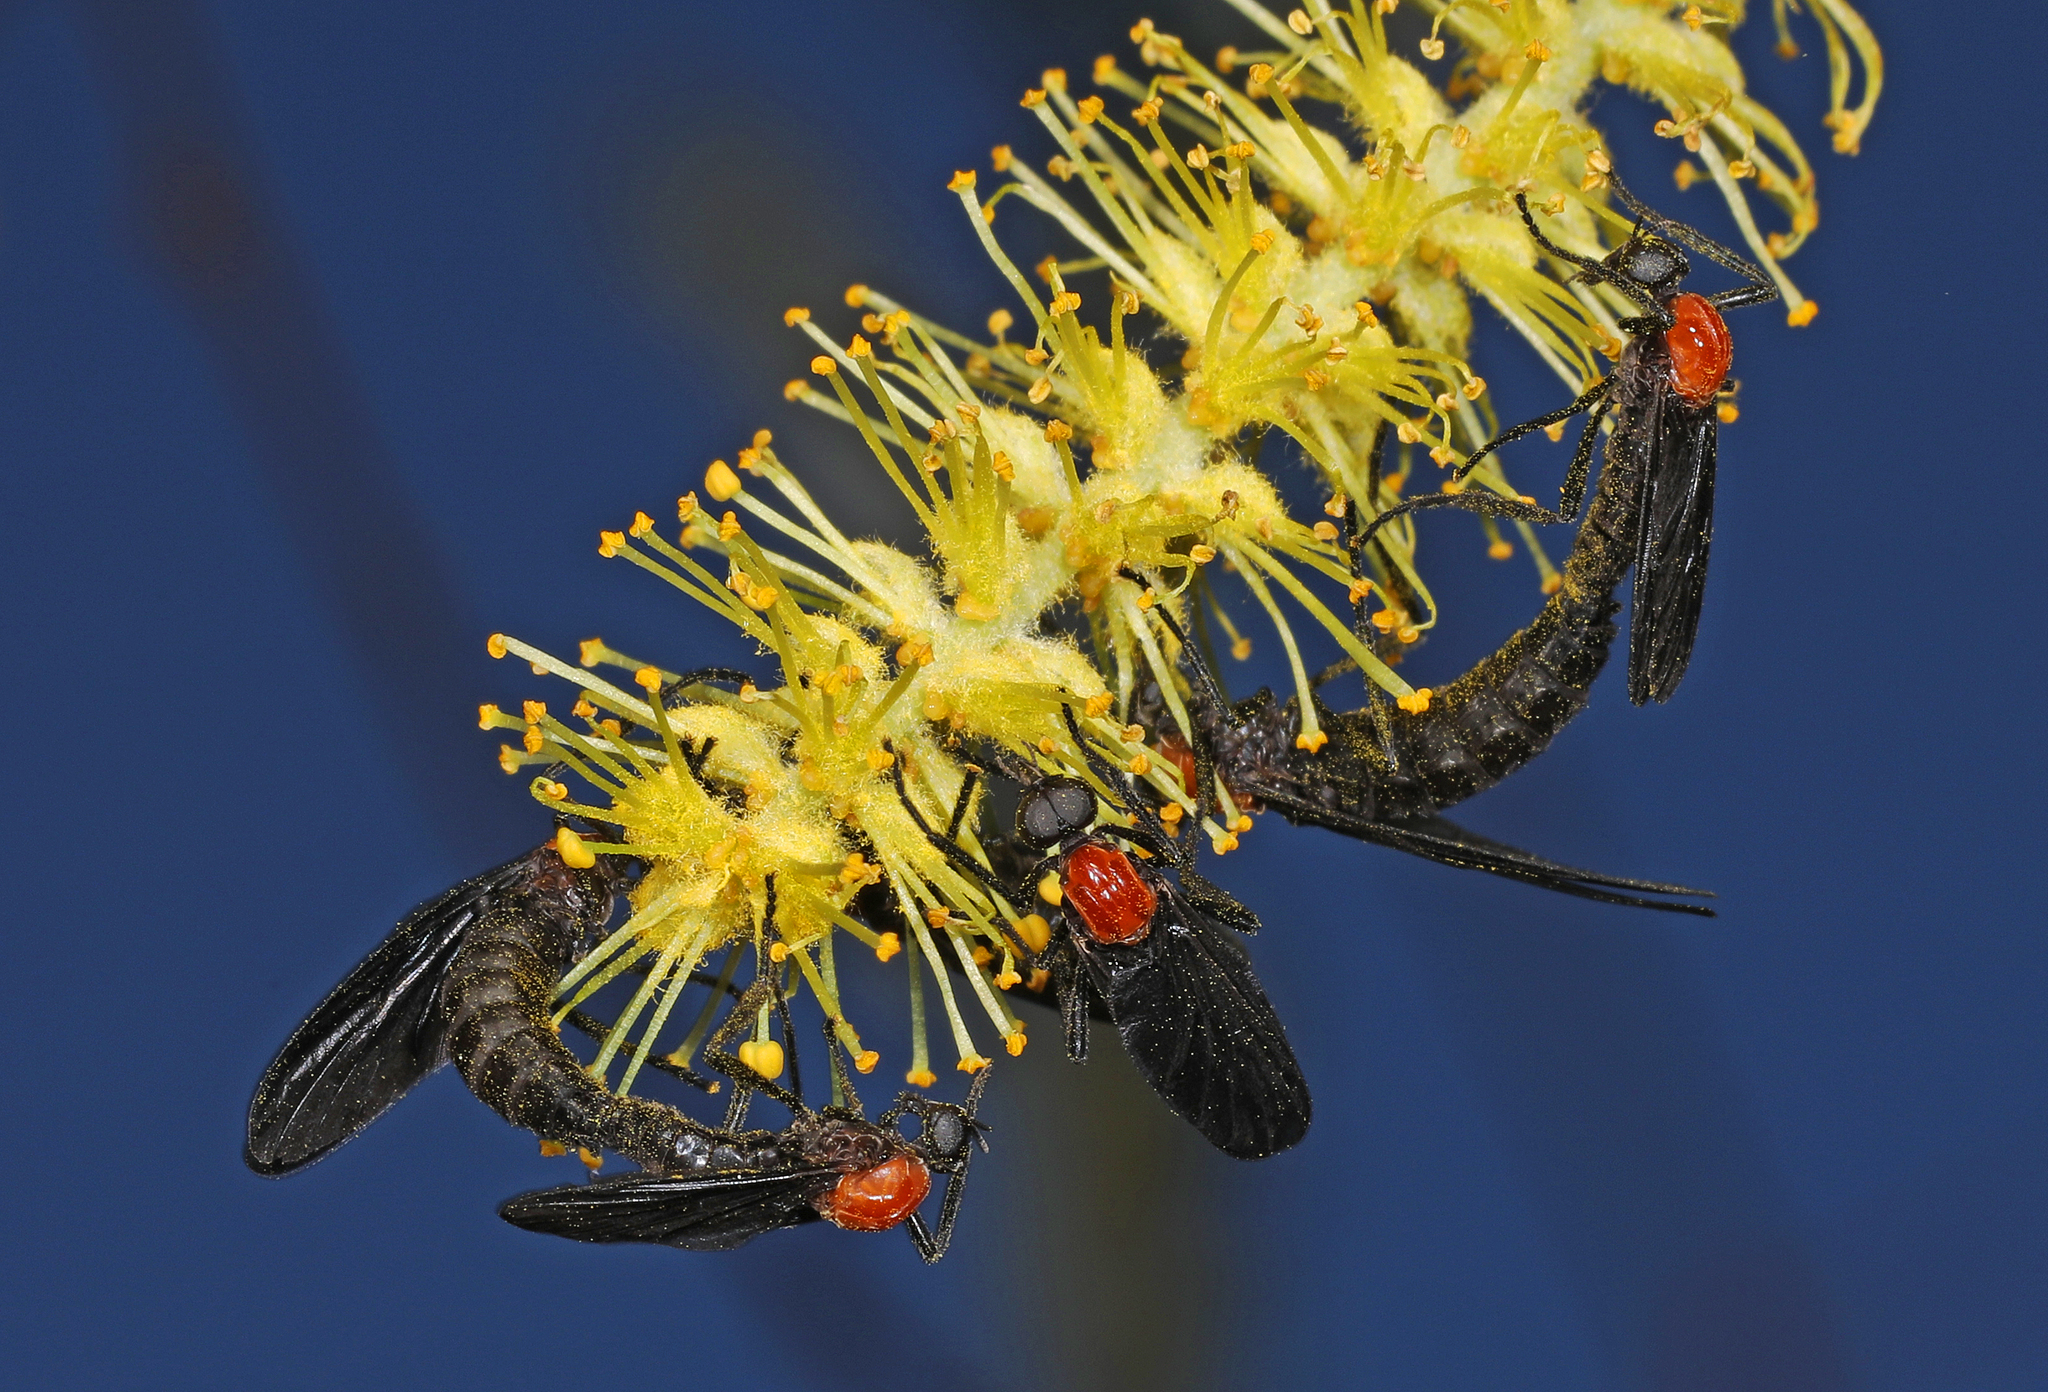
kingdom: Animalia
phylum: Arthropoda
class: Insecta
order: Diptera
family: Bibionidae
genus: Plecia
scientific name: Plecia nearctica
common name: March fly
